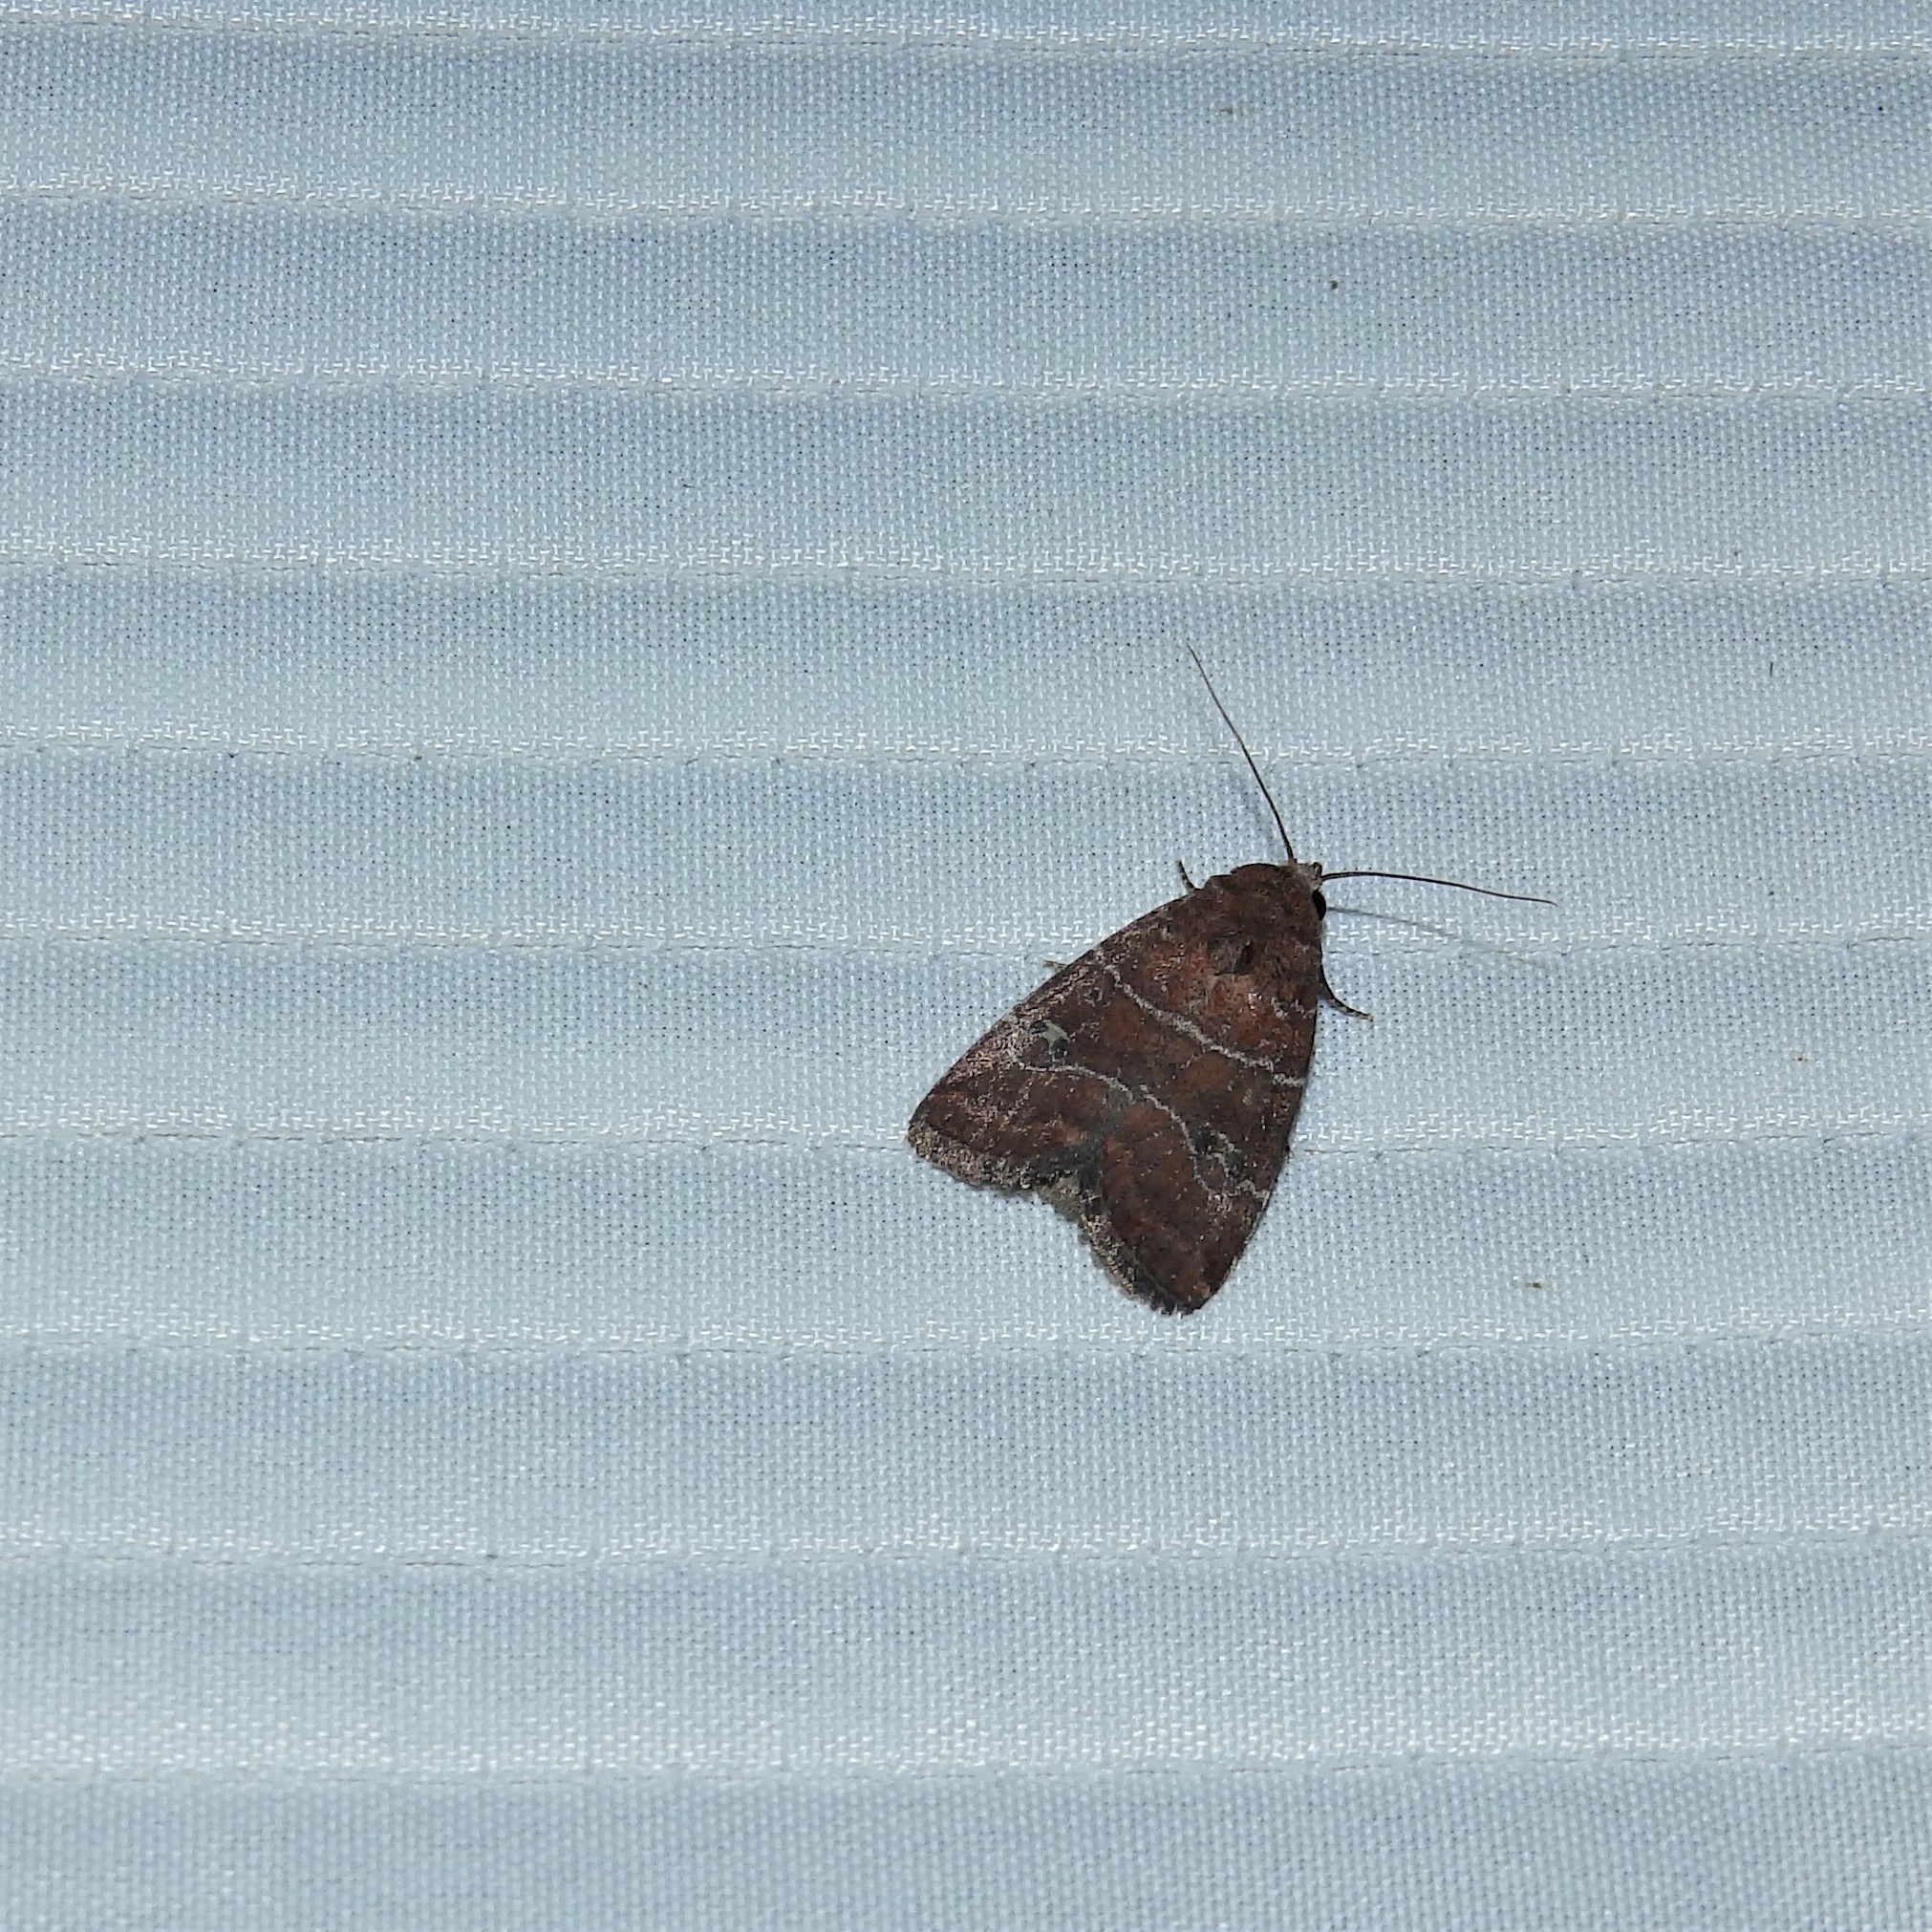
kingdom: Animalia
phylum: Arthropoda
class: Insecta
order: Lepidoptera
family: Noctuidae
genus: Elaphria
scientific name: Elaphria grata
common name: Grateful midget moth
